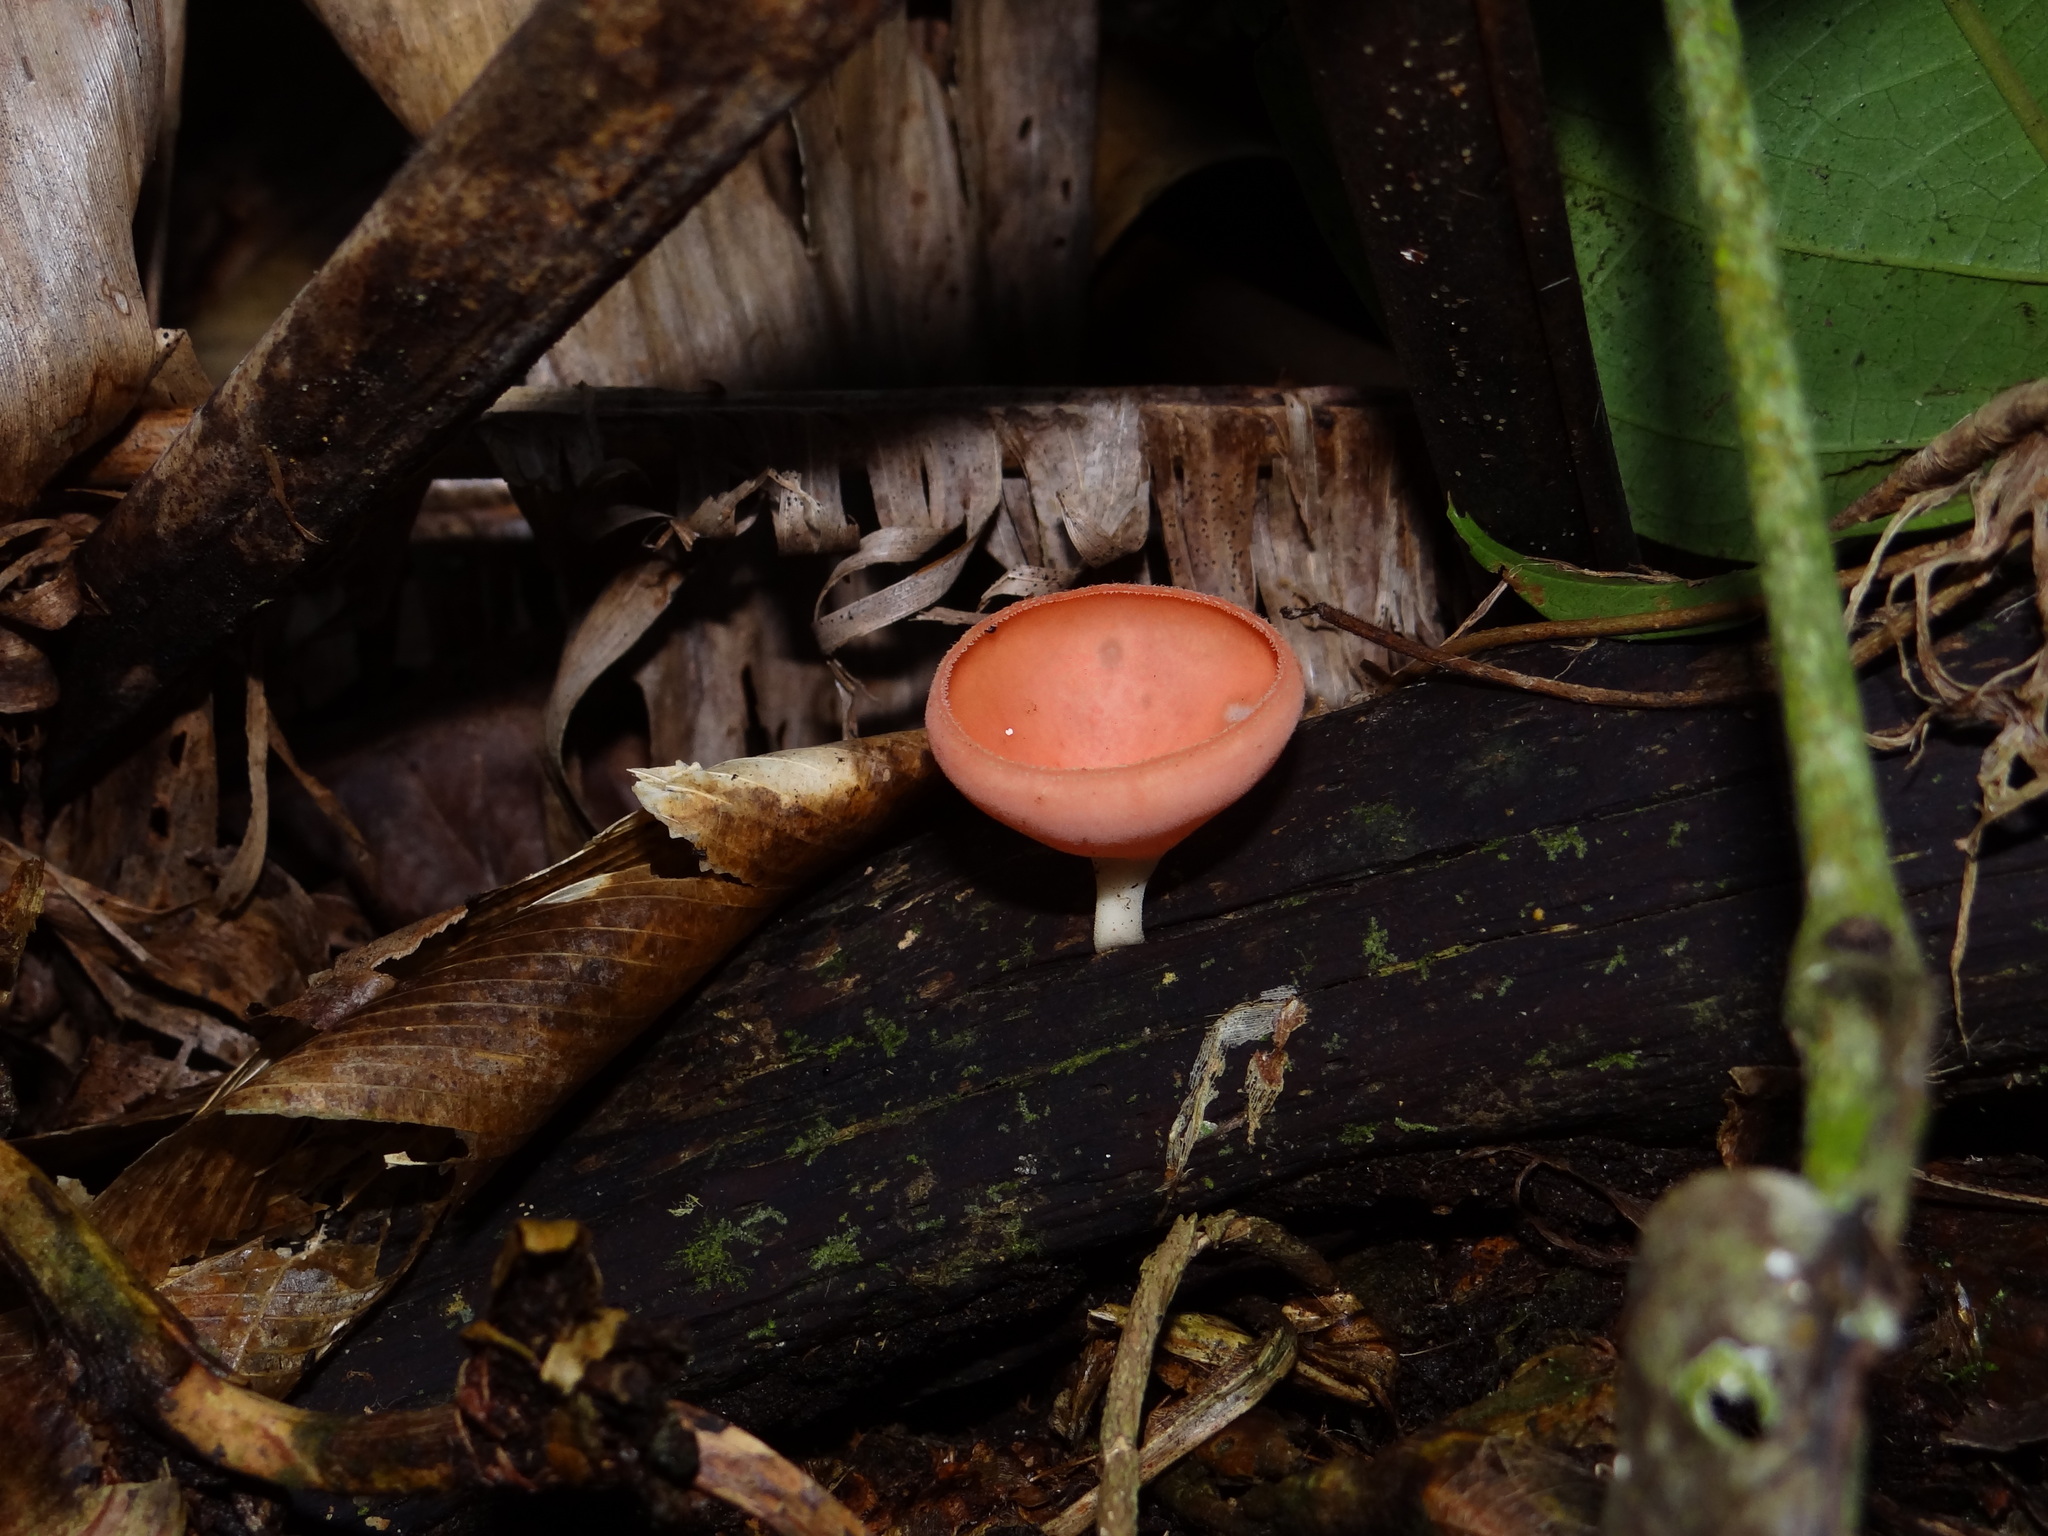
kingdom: Fungi
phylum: Ascomycota
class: Pezizomycetes
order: Pezizales
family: Sarcoscyphaceae
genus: Cookeina
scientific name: Cookeina speciosa
